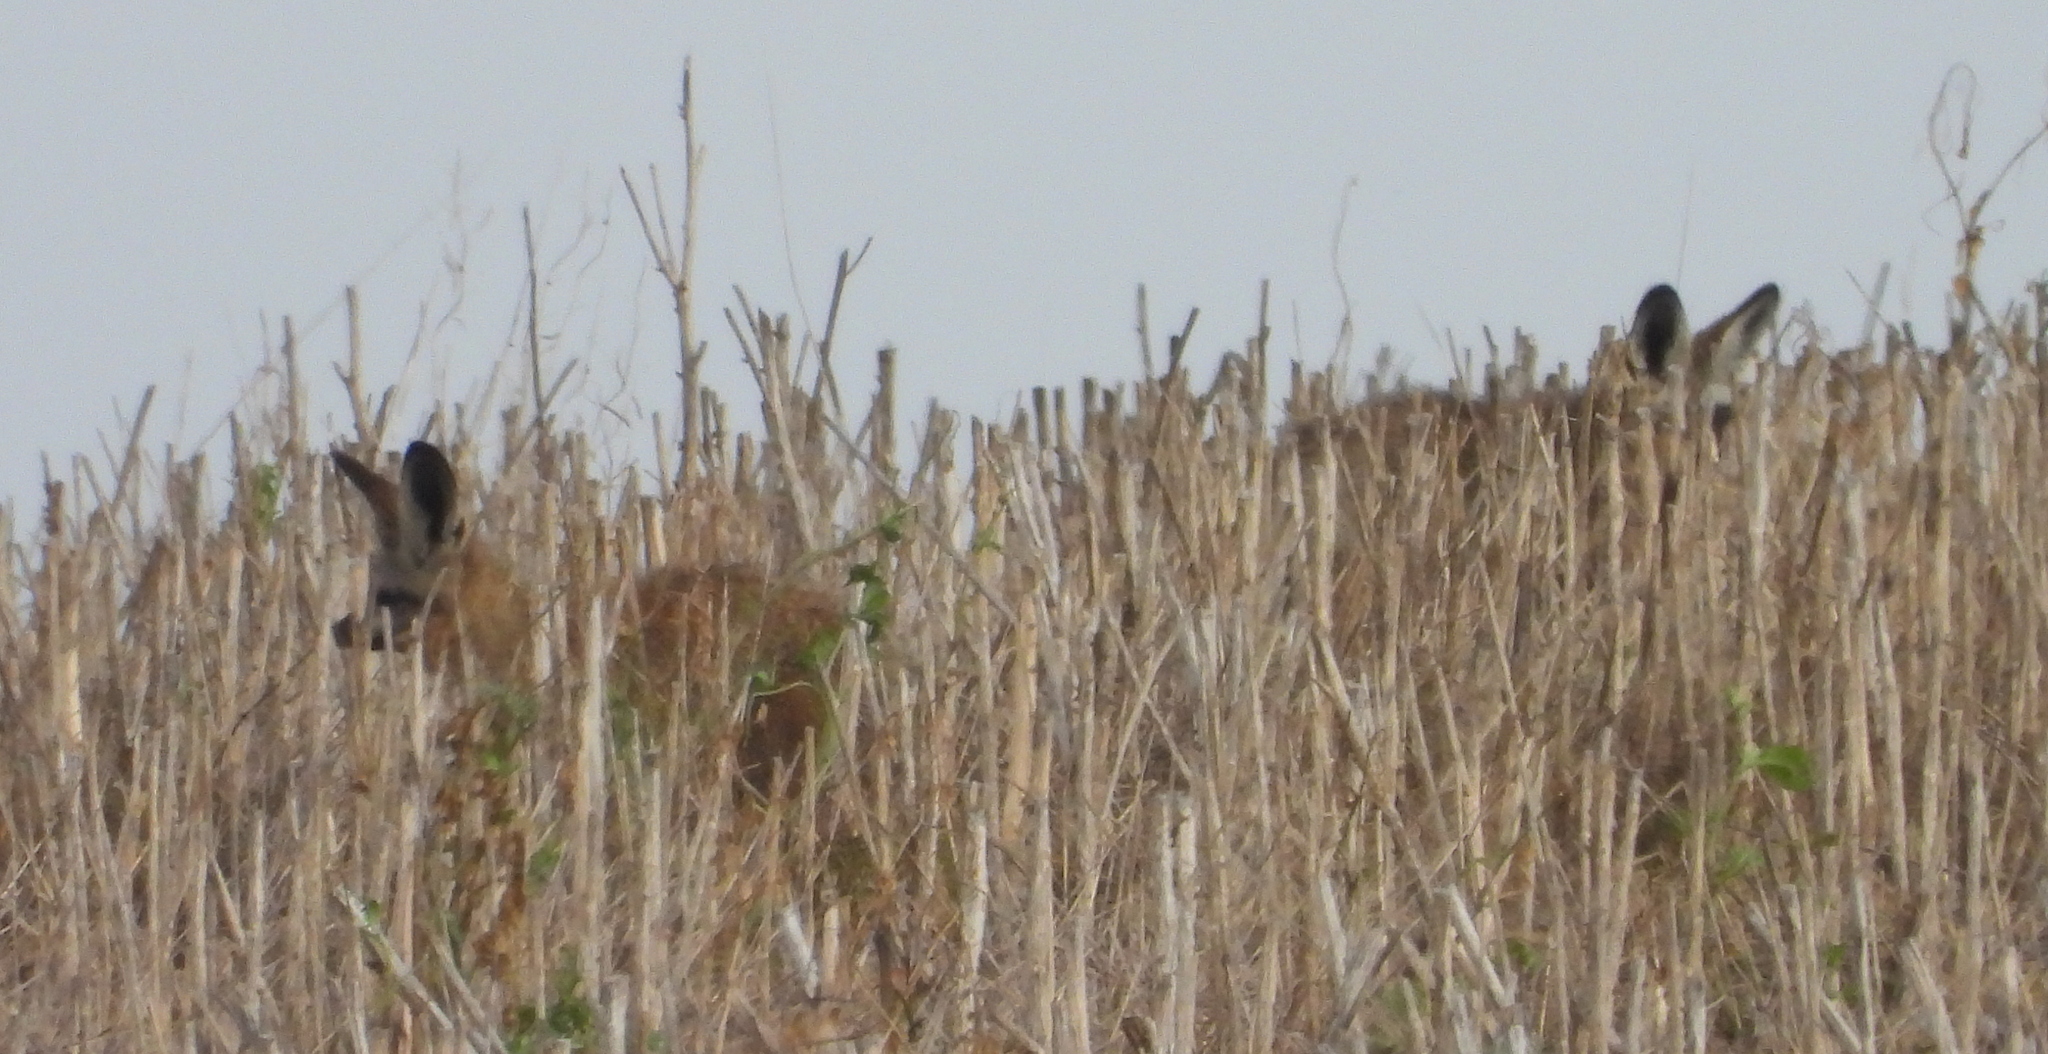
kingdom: Animalia
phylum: Chordata
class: Mammalia
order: Carnivora
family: Canidae
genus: Otocyon
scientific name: Otocyon megalotis
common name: Bat-eared fox
